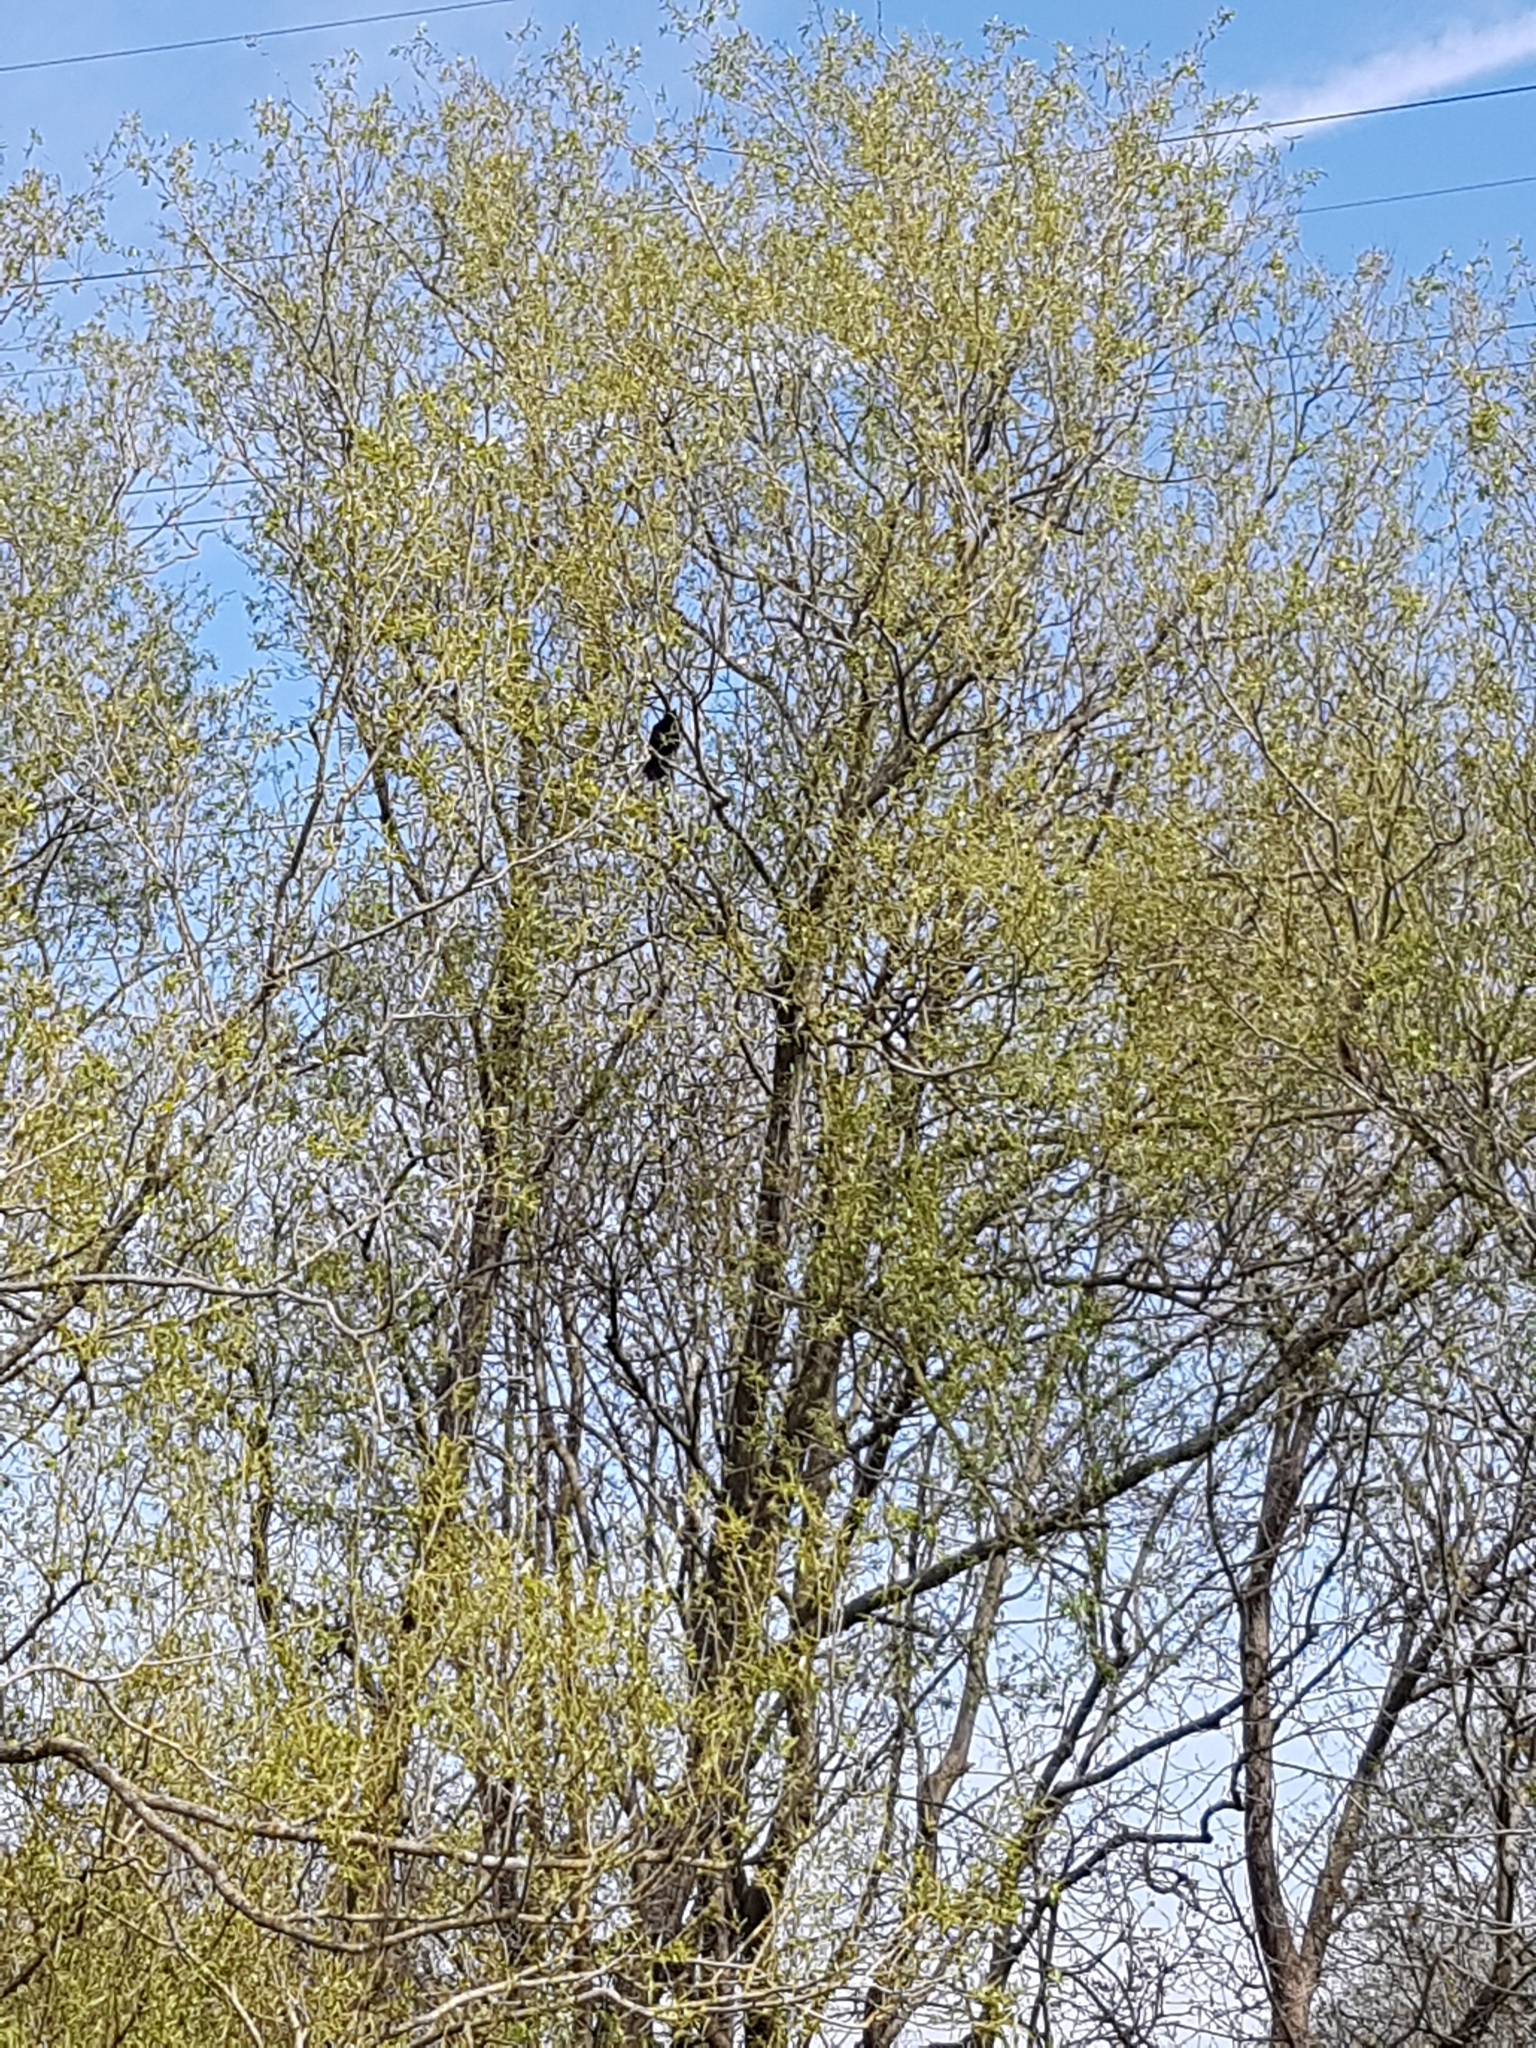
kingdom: Animalia
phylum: Chordata
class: Aves
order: Passeriformes
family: Corvidae
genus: Corvus
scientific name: Corvus corone
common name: Carrion crow
